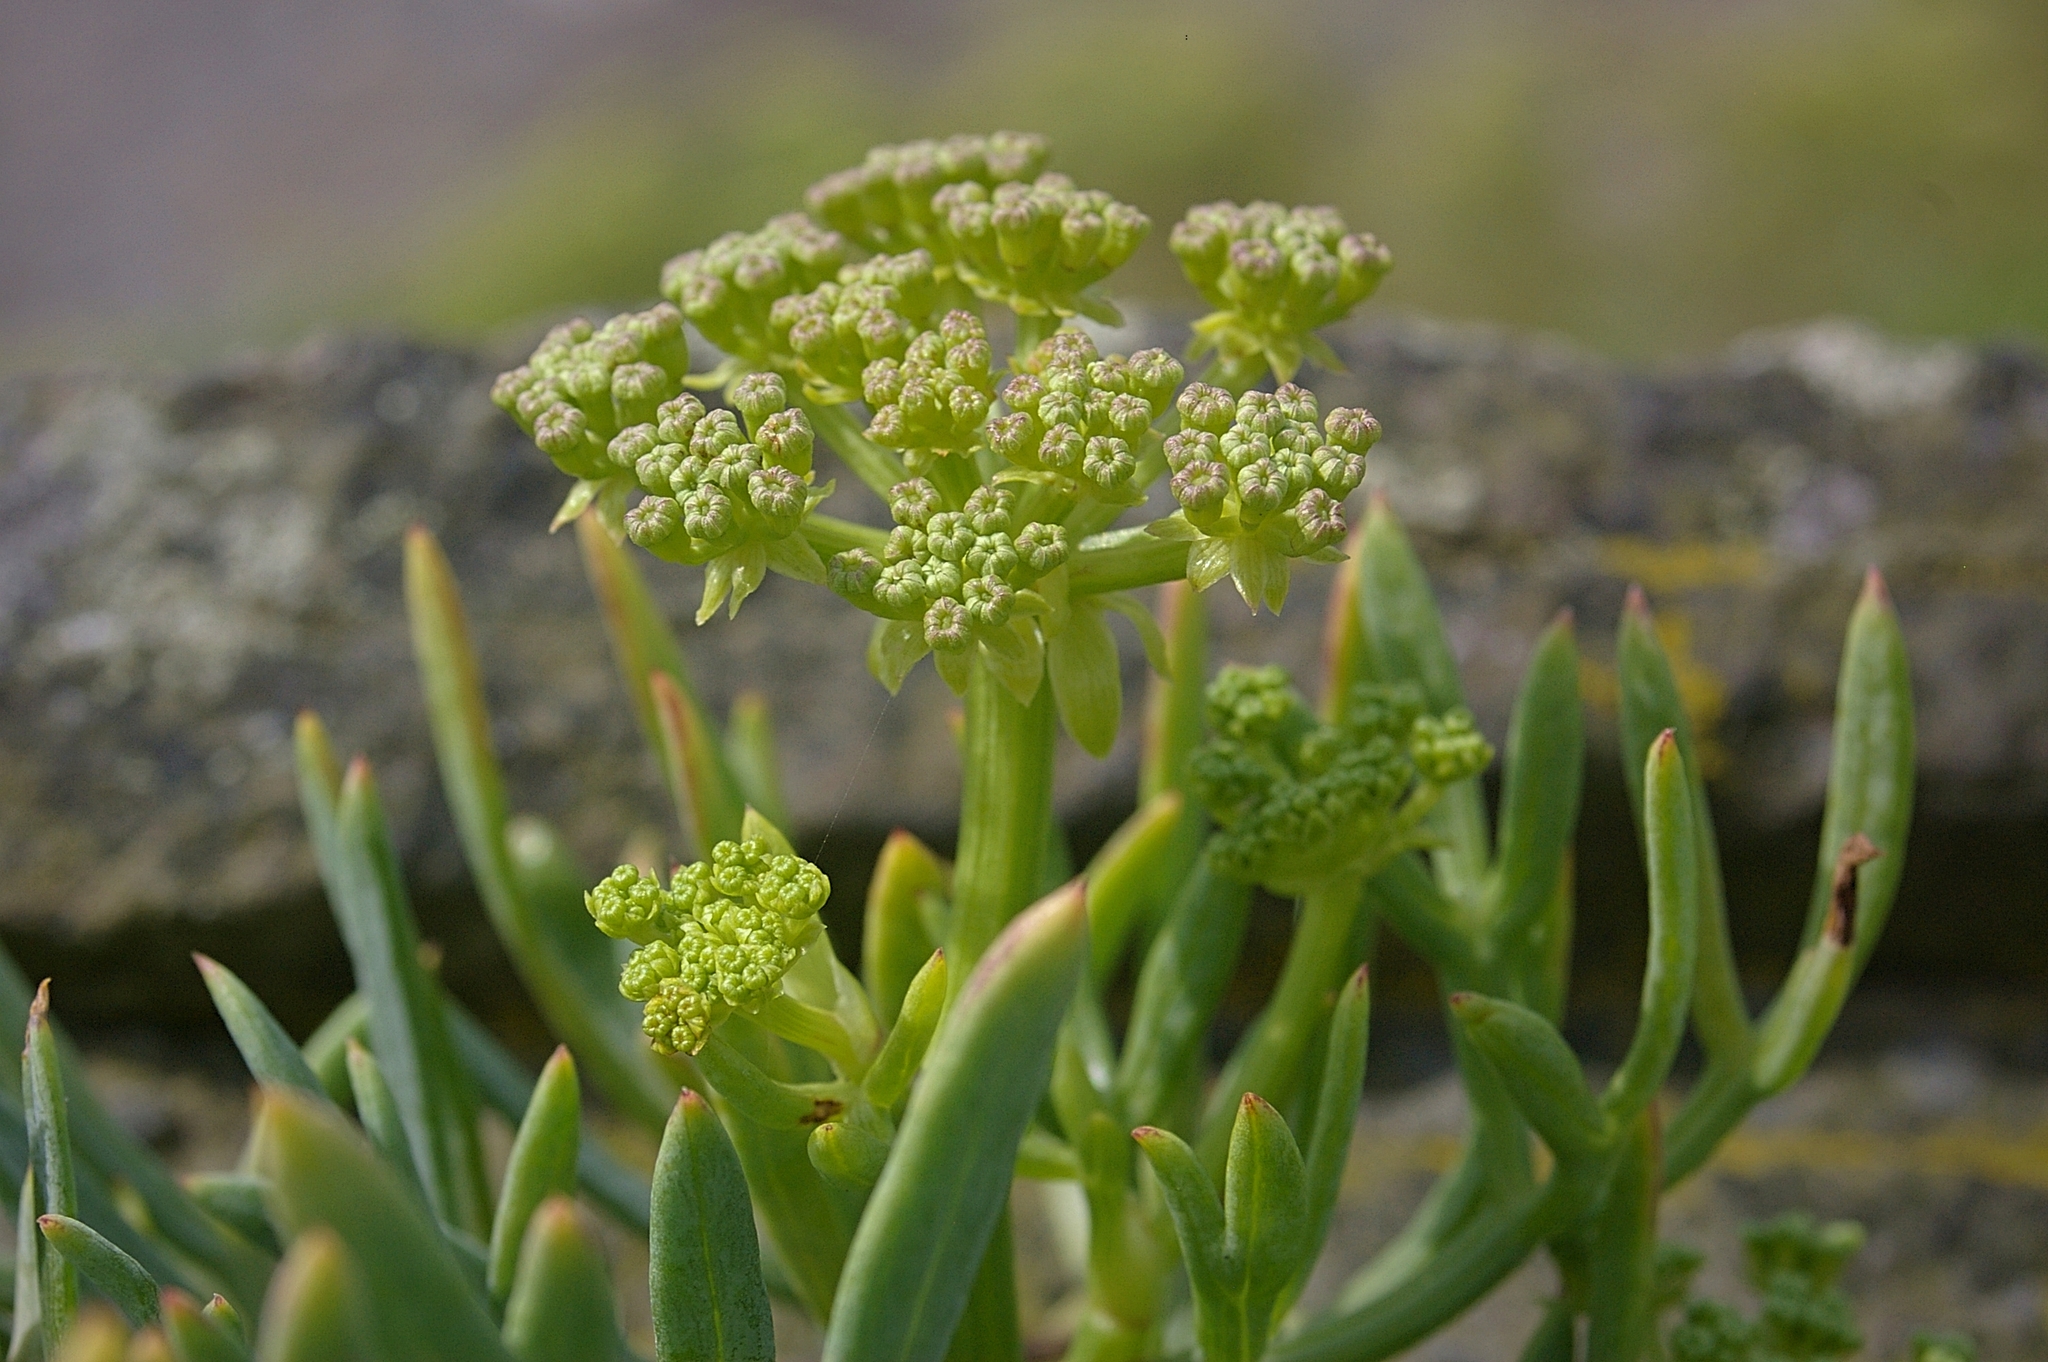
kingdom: Plantae
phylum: Tracheophyta
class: Magnoliopsida
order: Apiales
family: Apiaceae
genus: Crithmum
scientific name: Crithmum maritimum
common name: Rock samphire
